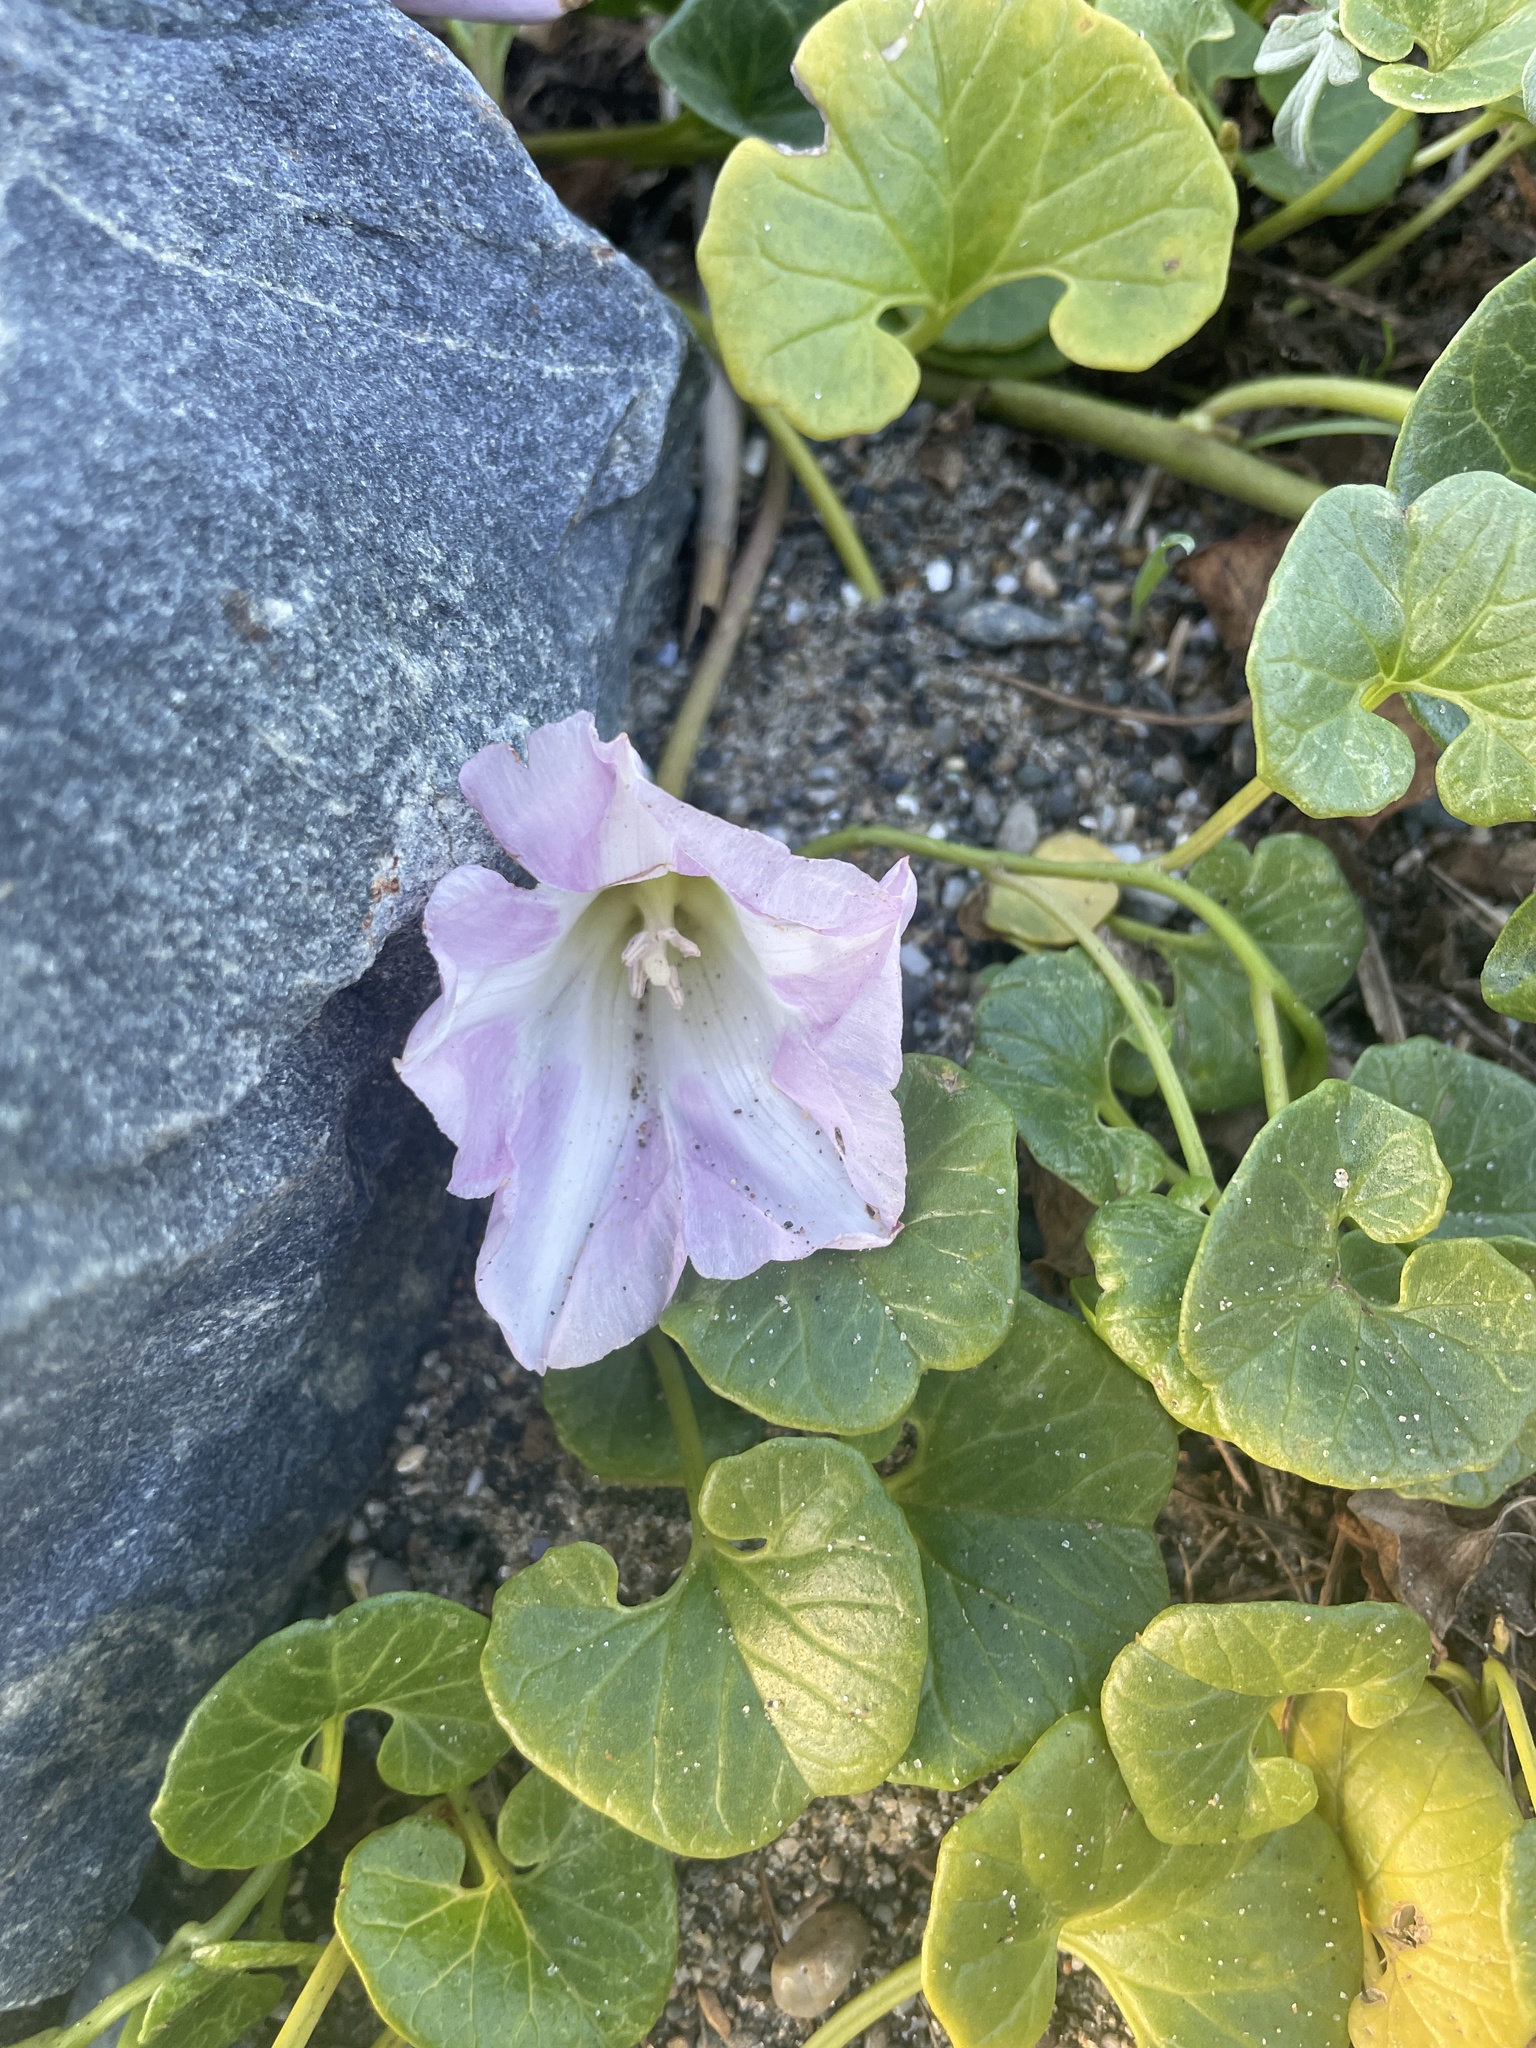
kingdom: Plantae
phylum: Tracheophyta
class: Magnoliopsida
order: Solanales
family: Convolvulaceae
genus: Calystegia
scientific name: Calystegia soldanella
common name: Sea bindweed
